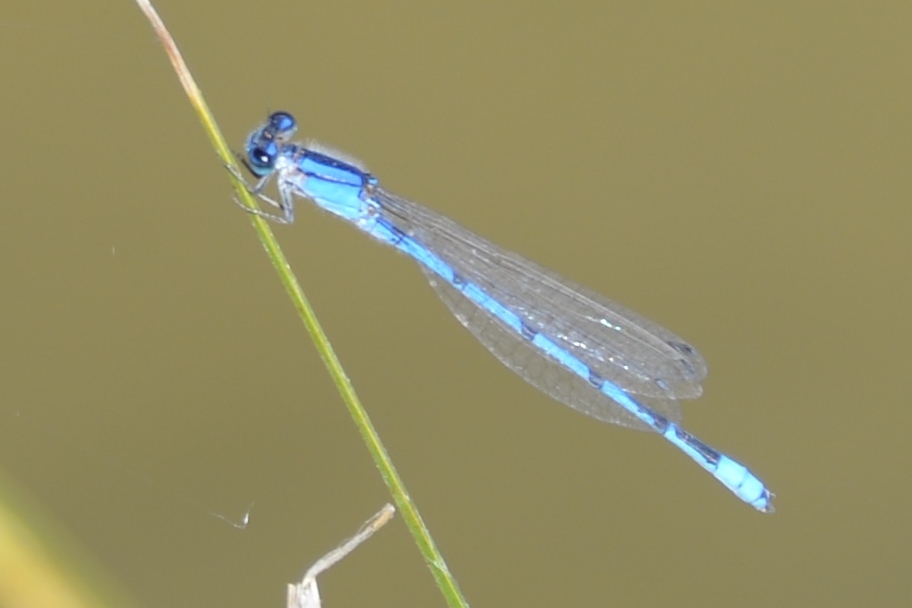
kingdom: Animalia
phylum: Arthropoda
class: Insecta
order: Odonata
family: Coenagrionidae
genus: Enallagma
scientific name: Enallagma civile
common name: Damselfly
